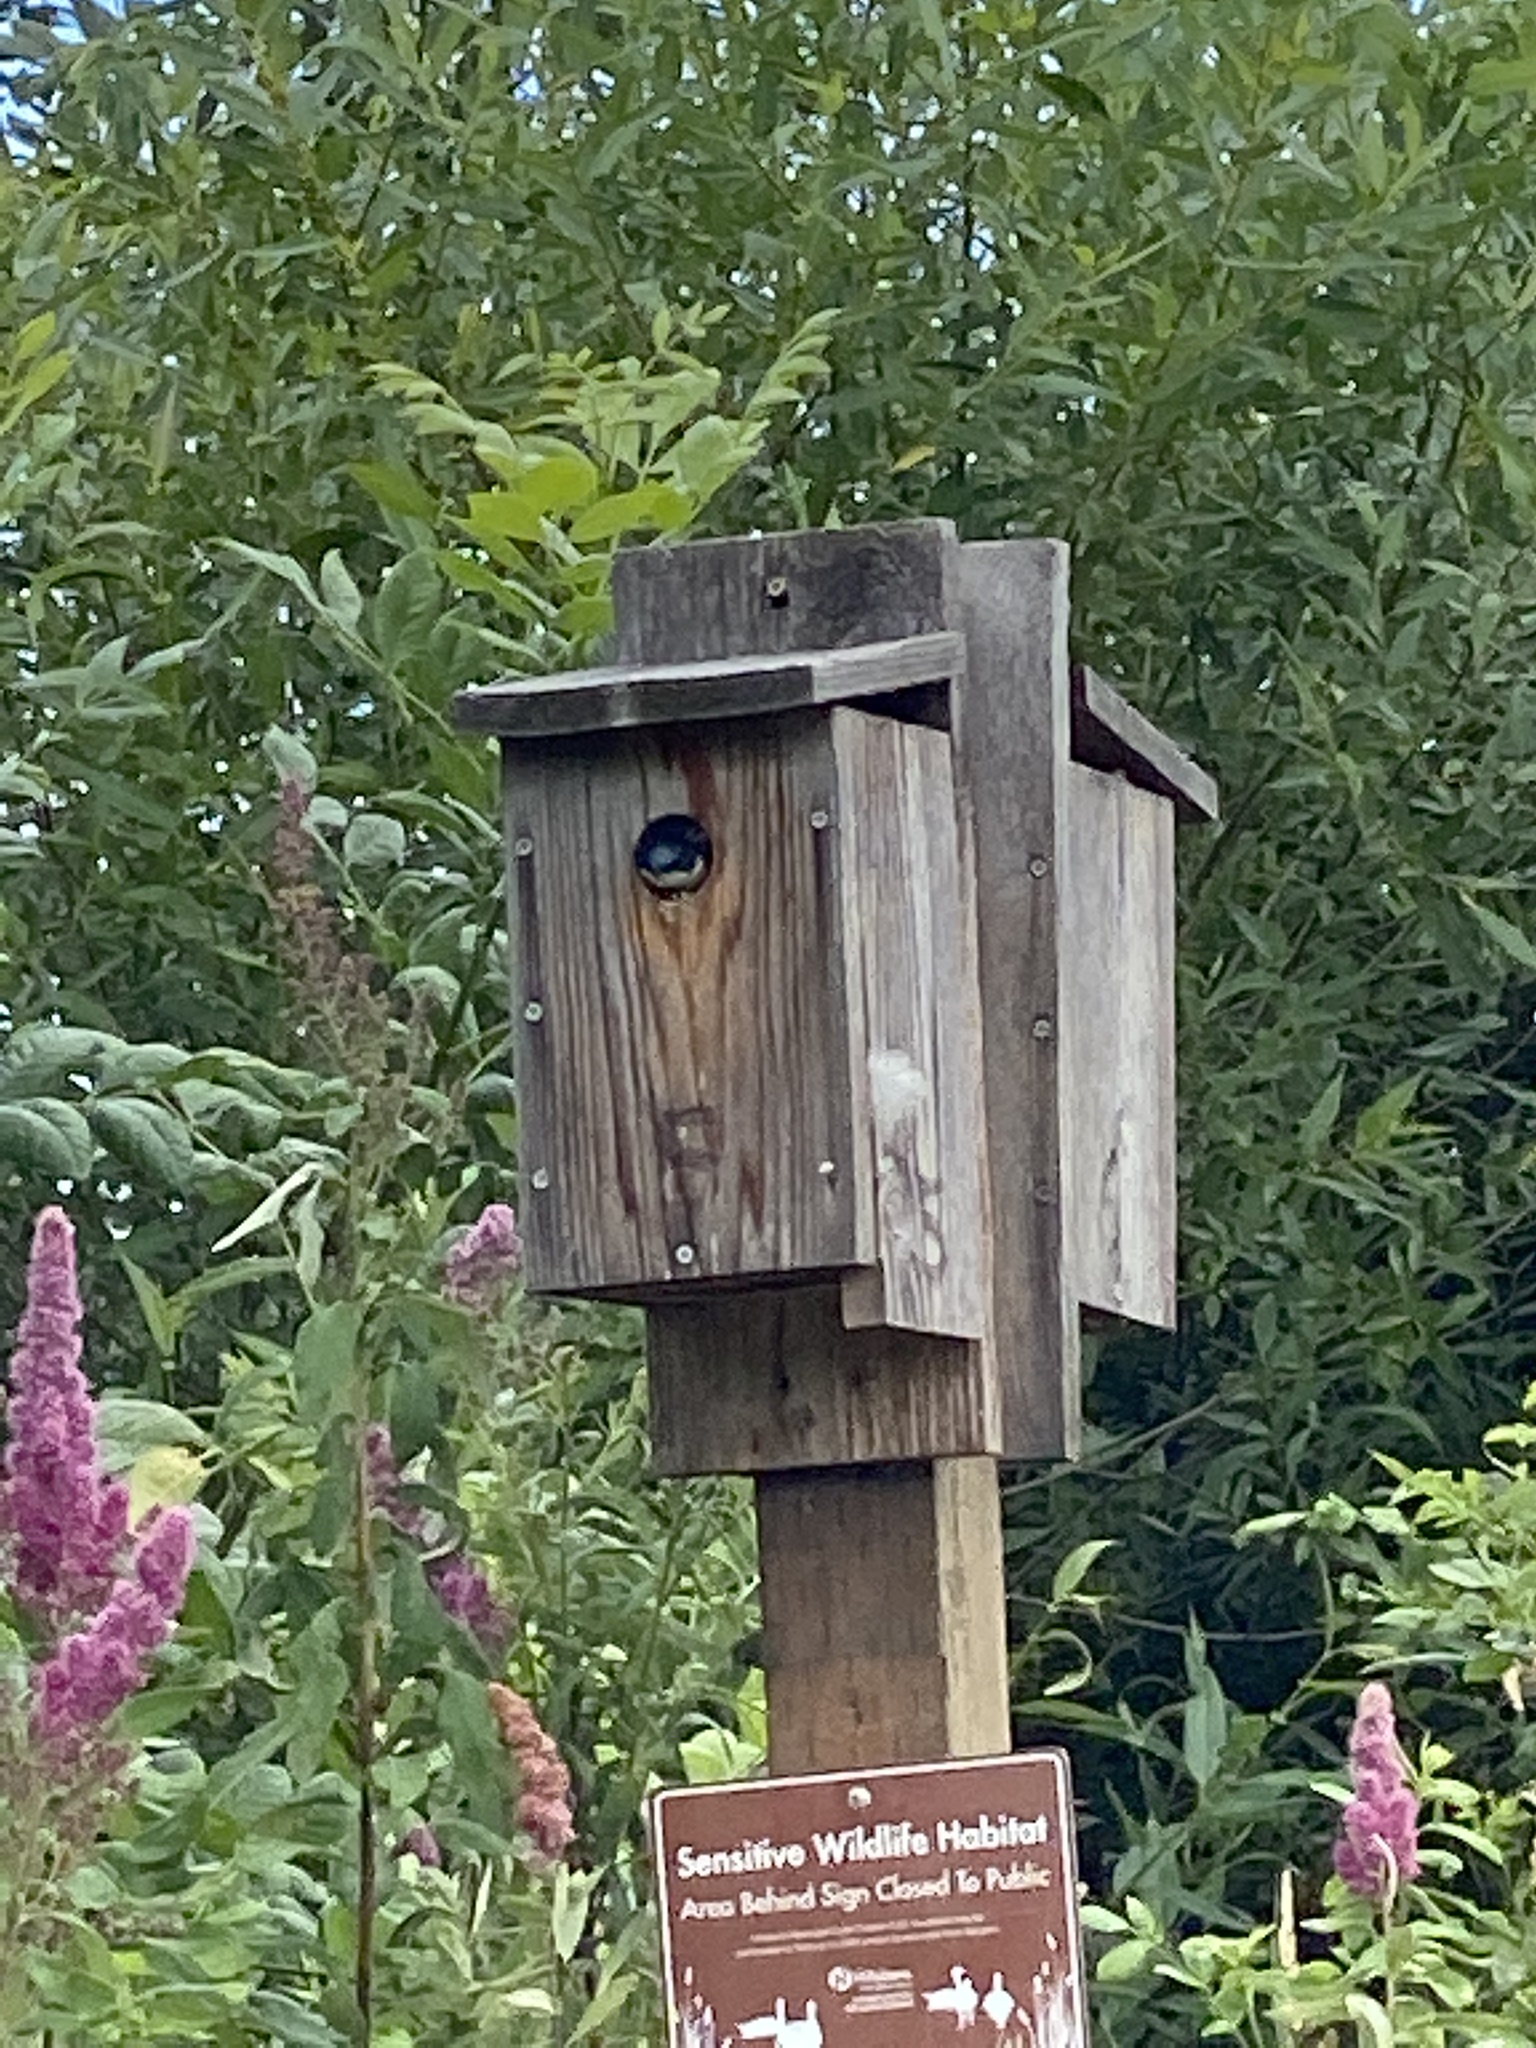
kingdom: Animalia
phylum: Chordata
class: Aves
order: Passeriformes
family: Hirundinidae
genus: Tachycineta
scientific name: Tachycineta bicolor
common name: Tree swallow
